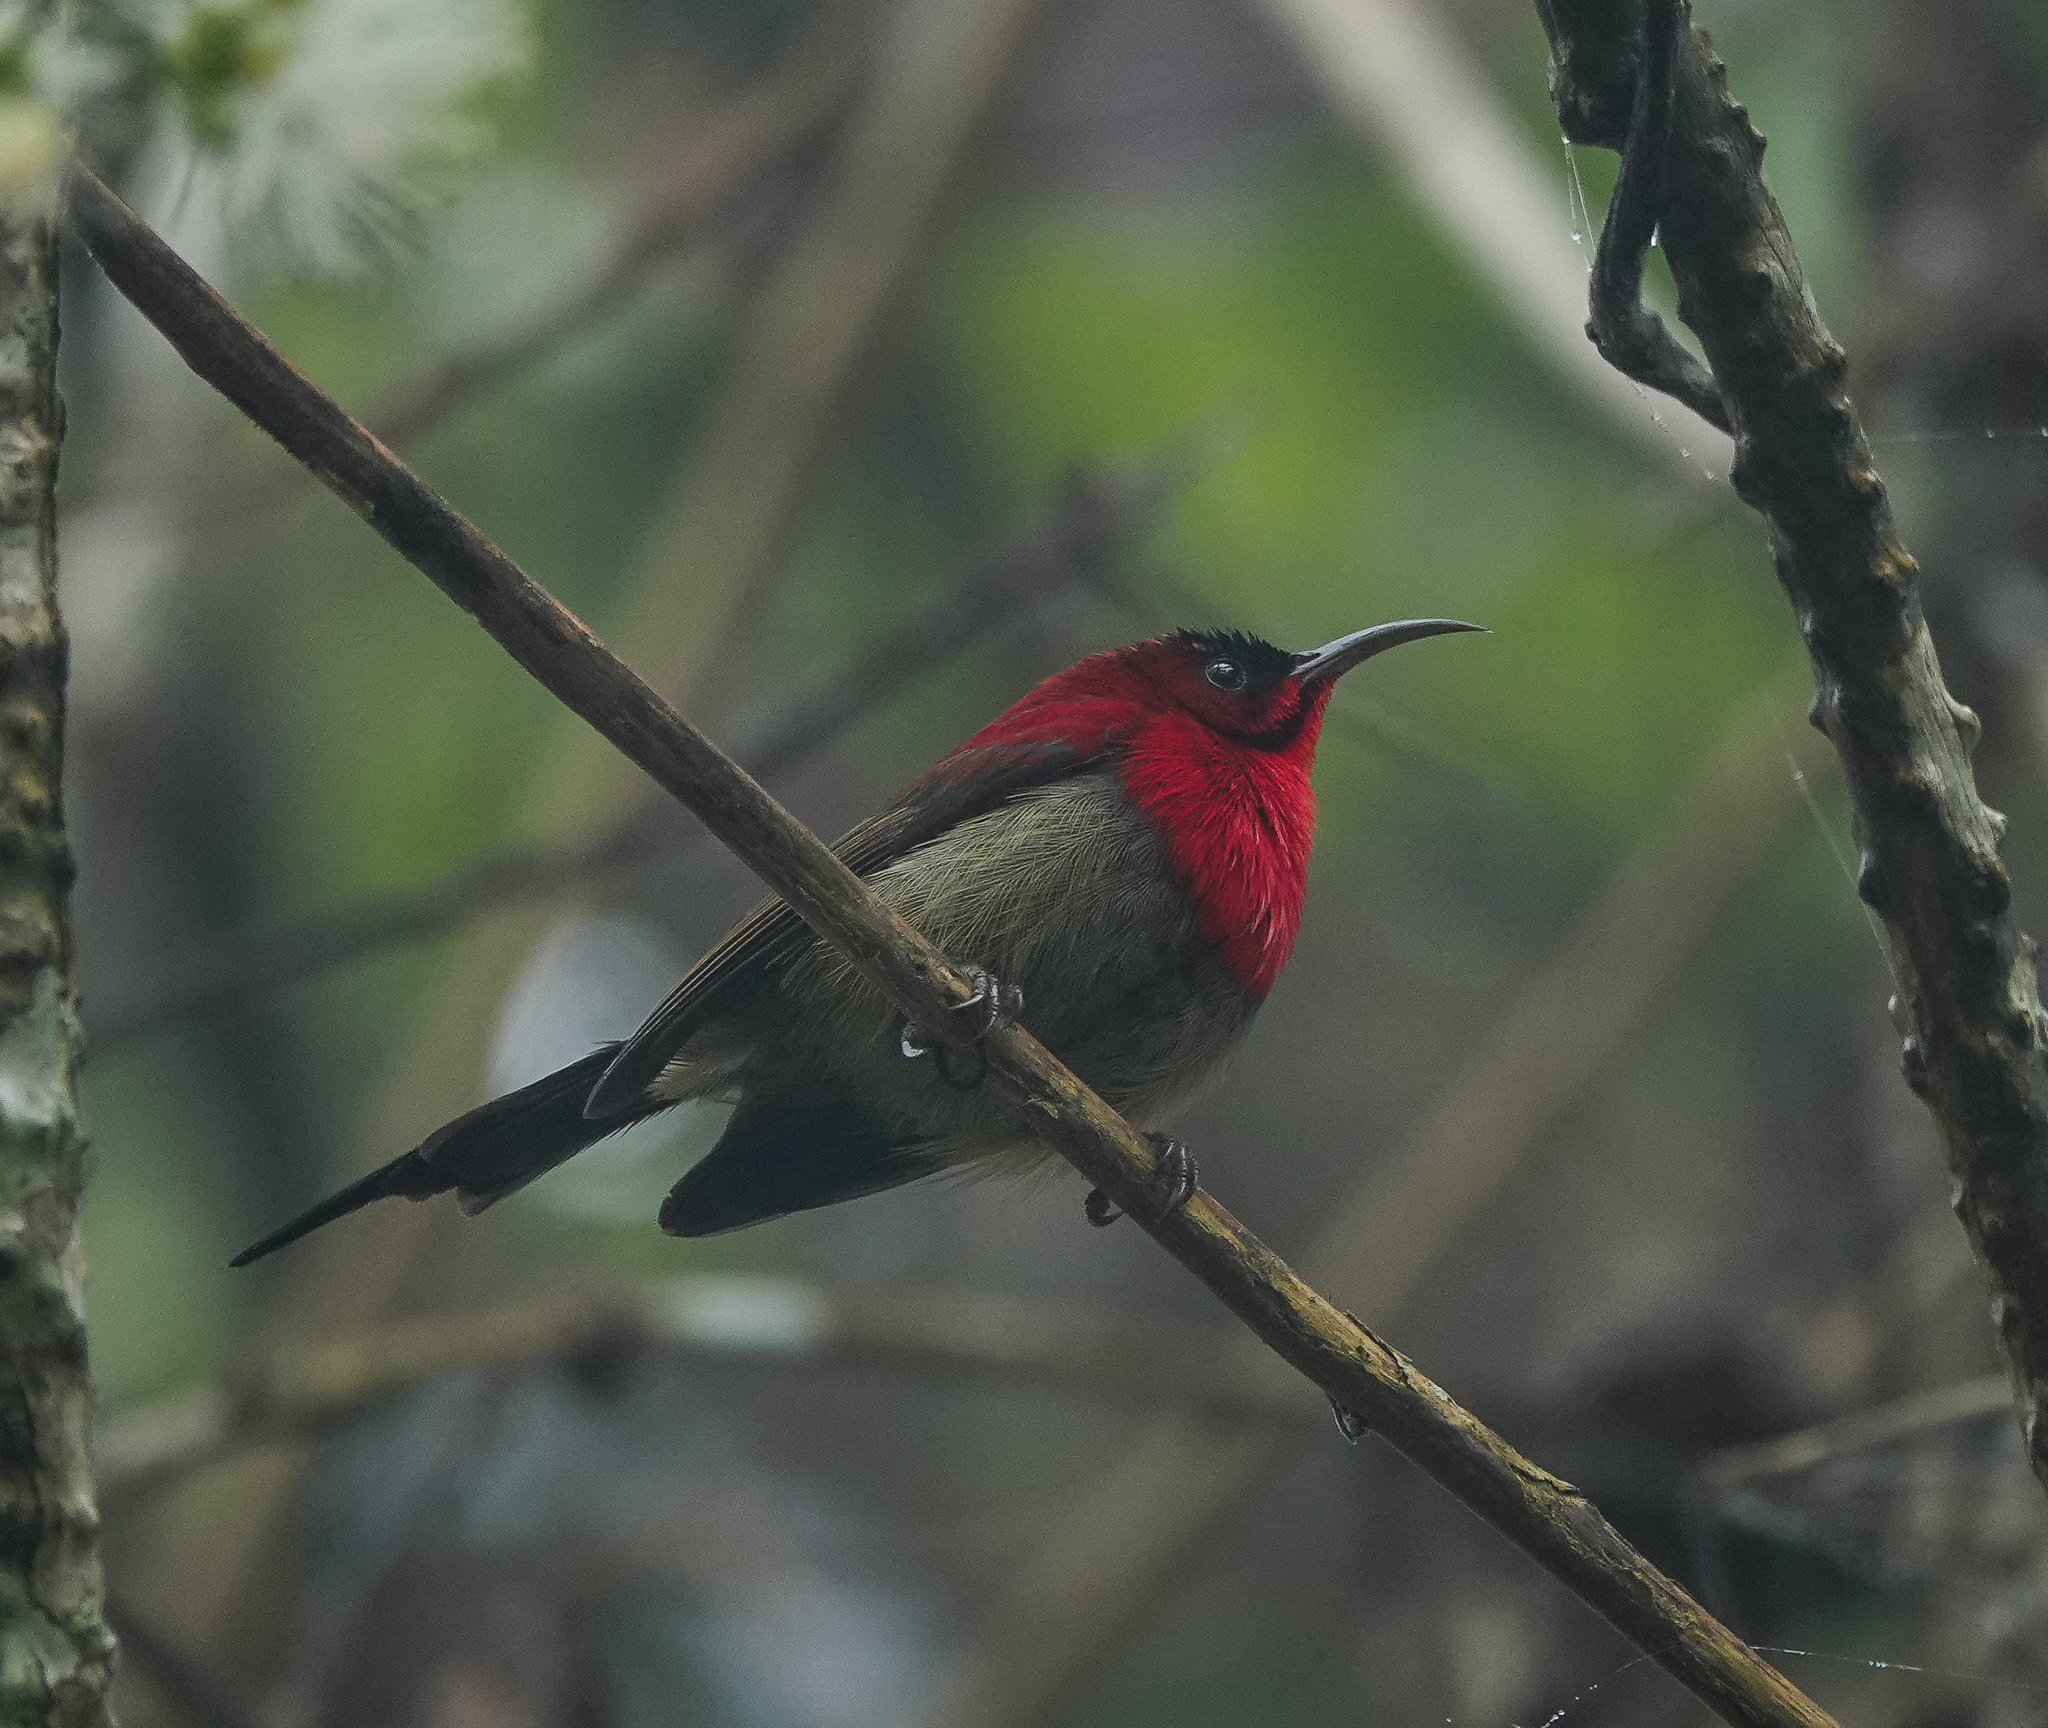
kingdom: Animalia
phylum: Chordata
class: Aves
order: Passeriformes
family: Nectariniidae
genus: Aethopyga
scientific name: Aethopyga siparaja
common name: Crimson sunbird
